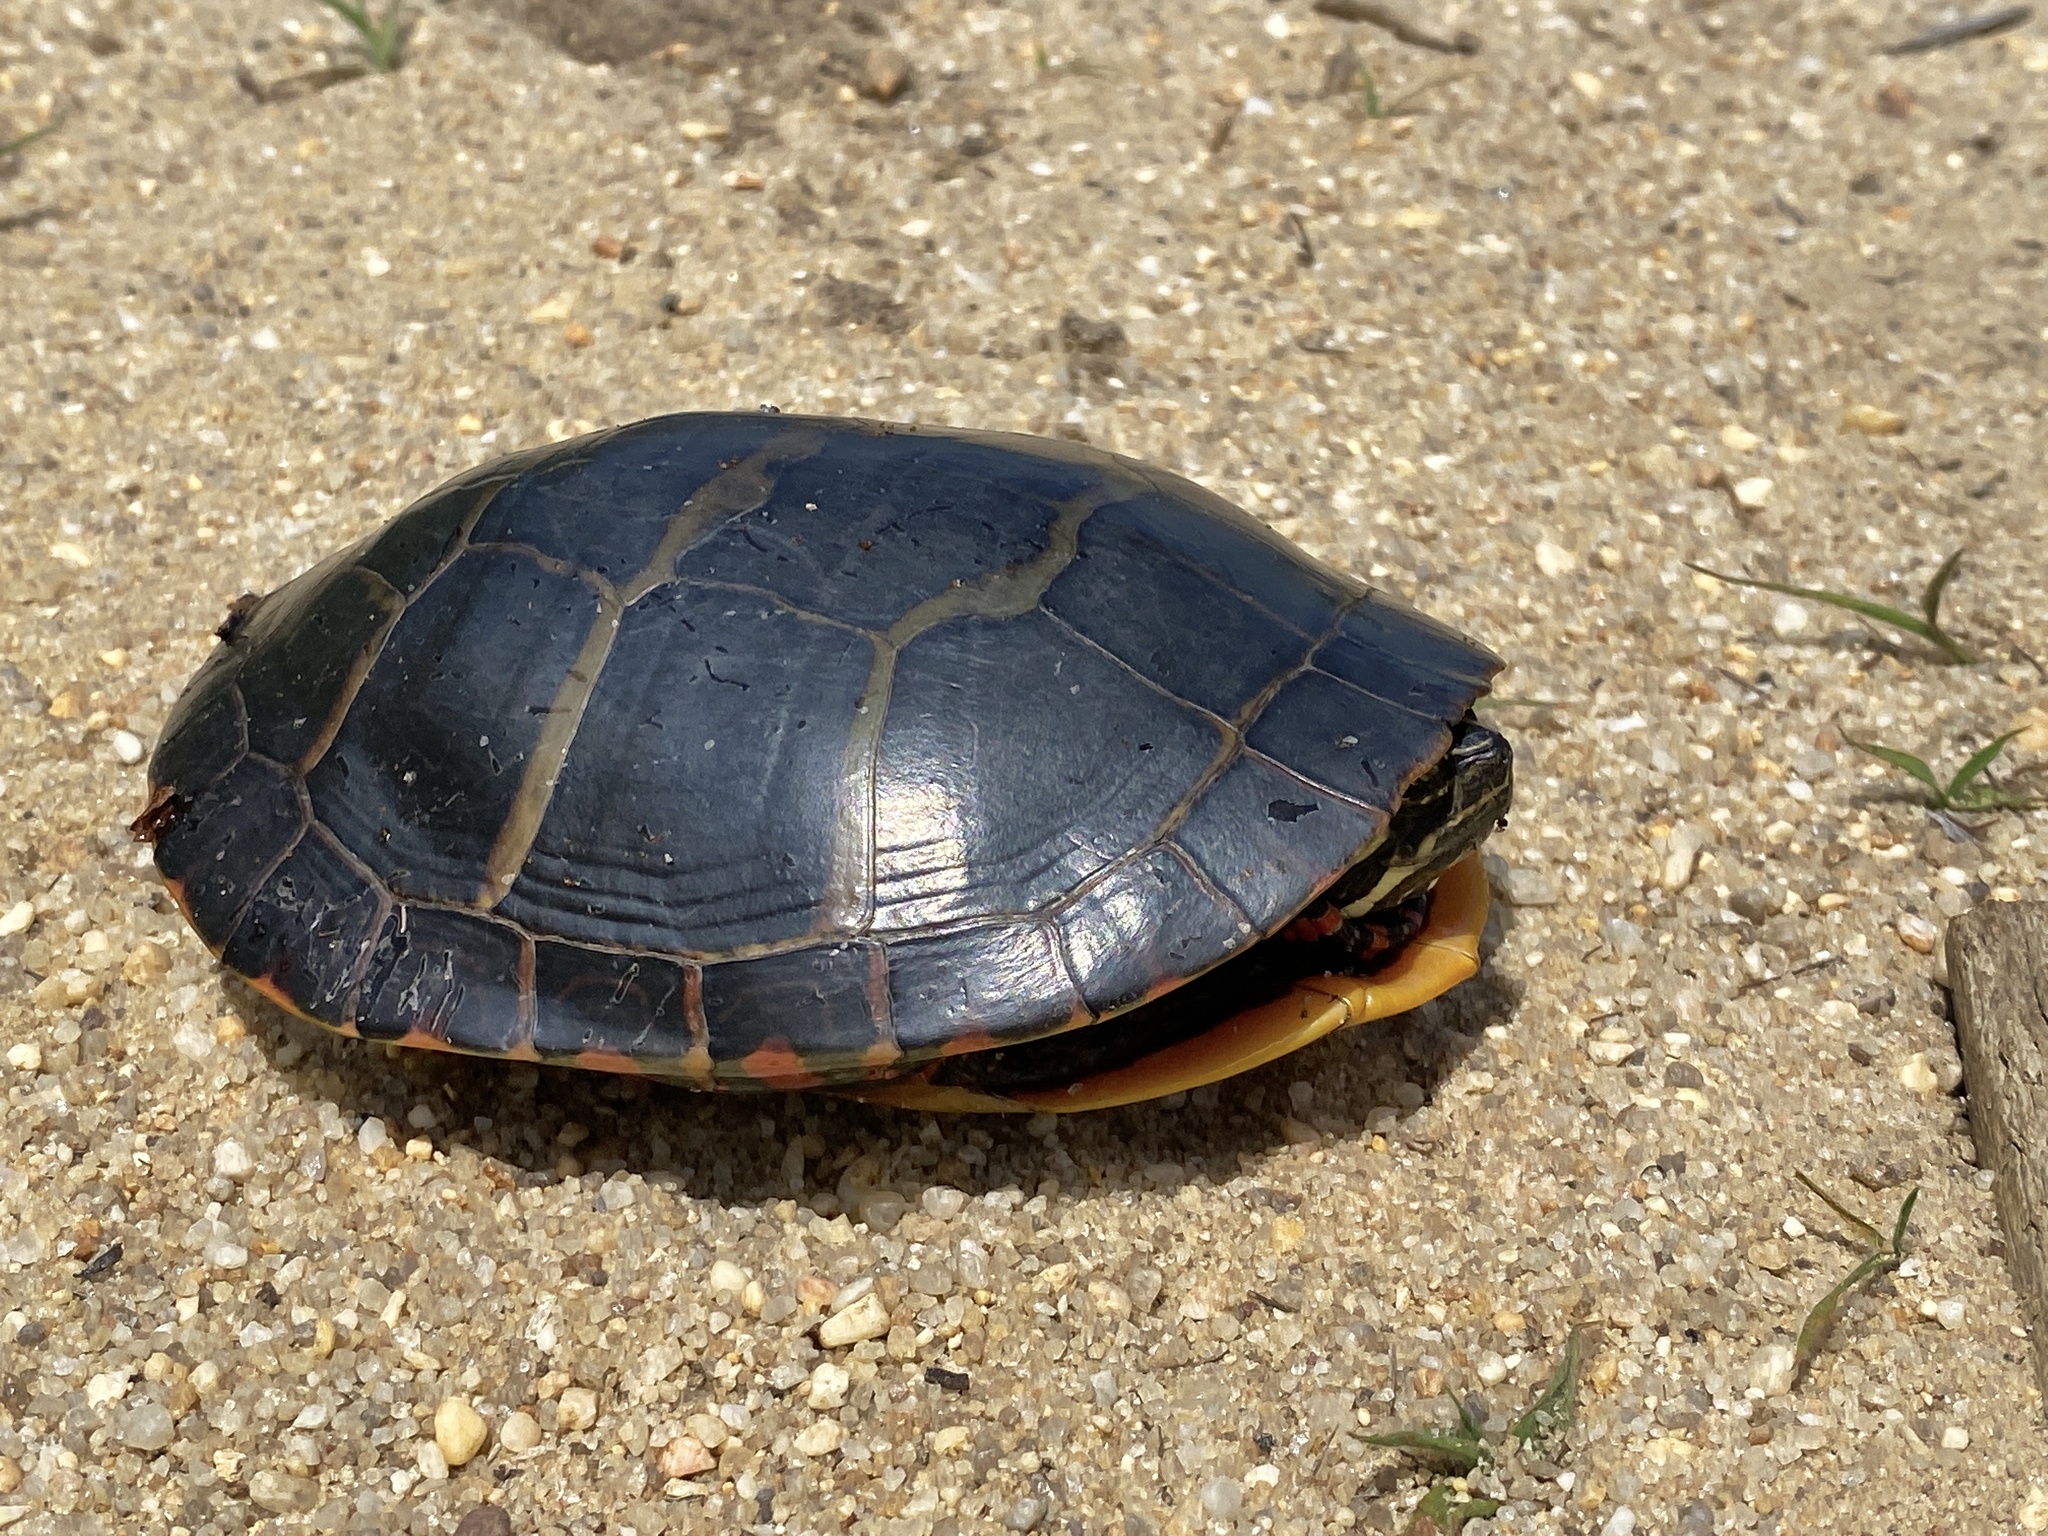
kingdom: Animalia
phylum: Chordata
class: Testudines
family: Emydidae
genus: Chrysemys
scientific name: Chrysemys picta
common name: Painted turtle
